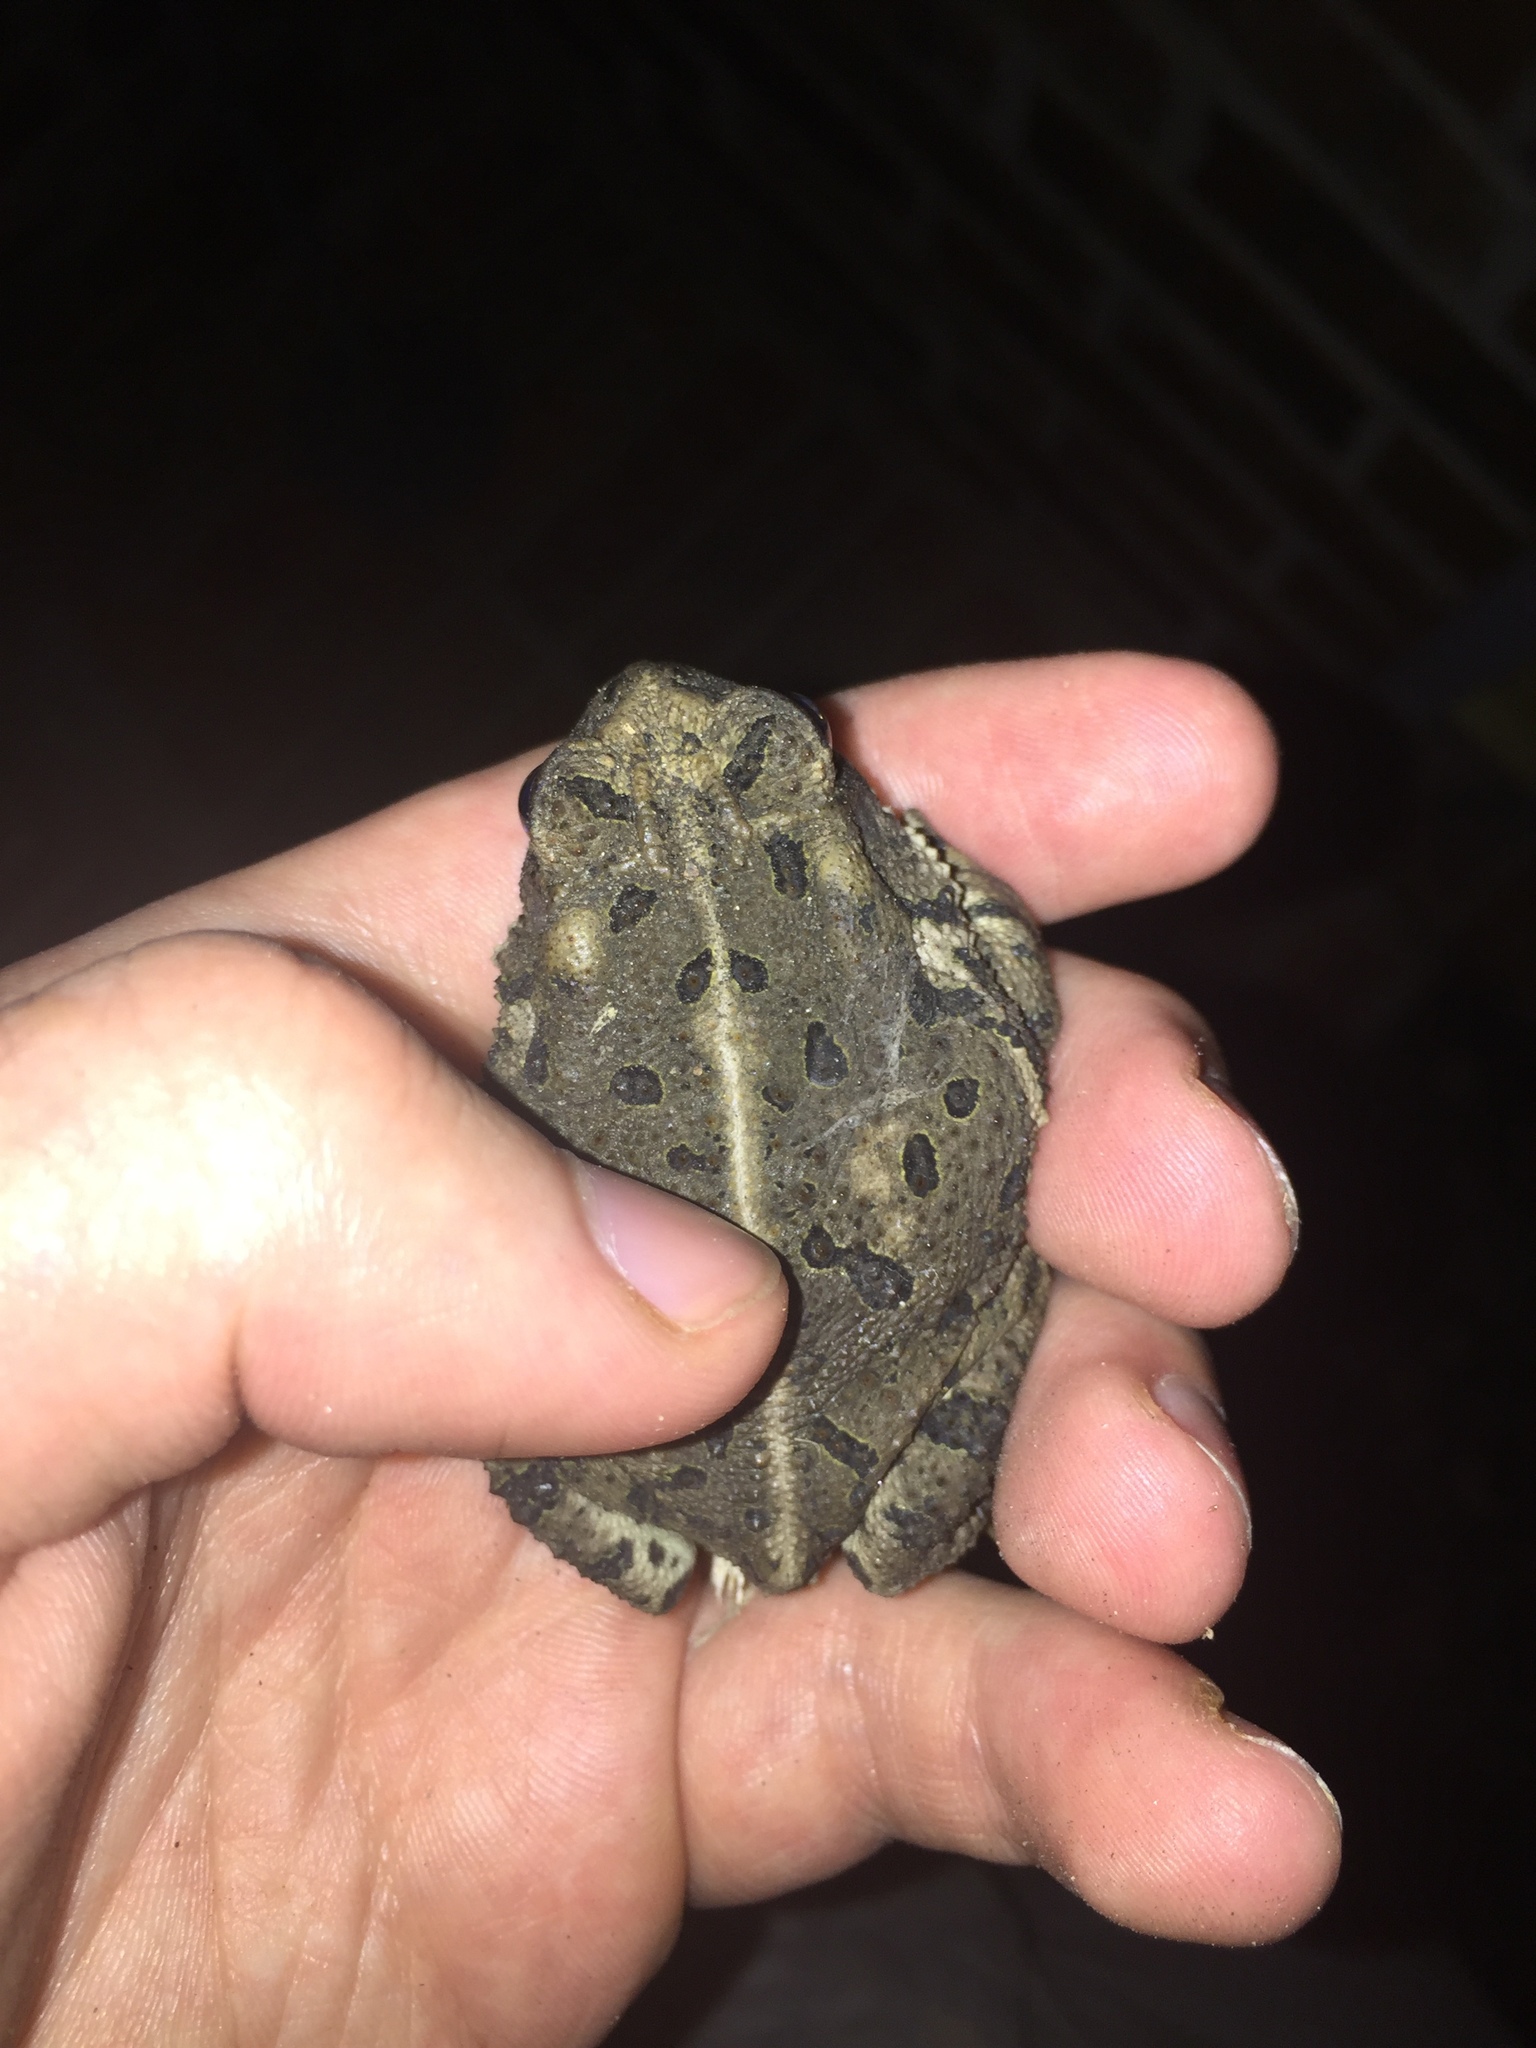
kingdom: Animalia
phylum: Chordata
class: Amphibia
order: Anura
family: Bufonidae
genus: Incilius
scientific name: Incilius nebulifer
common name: Gulf coast toad
